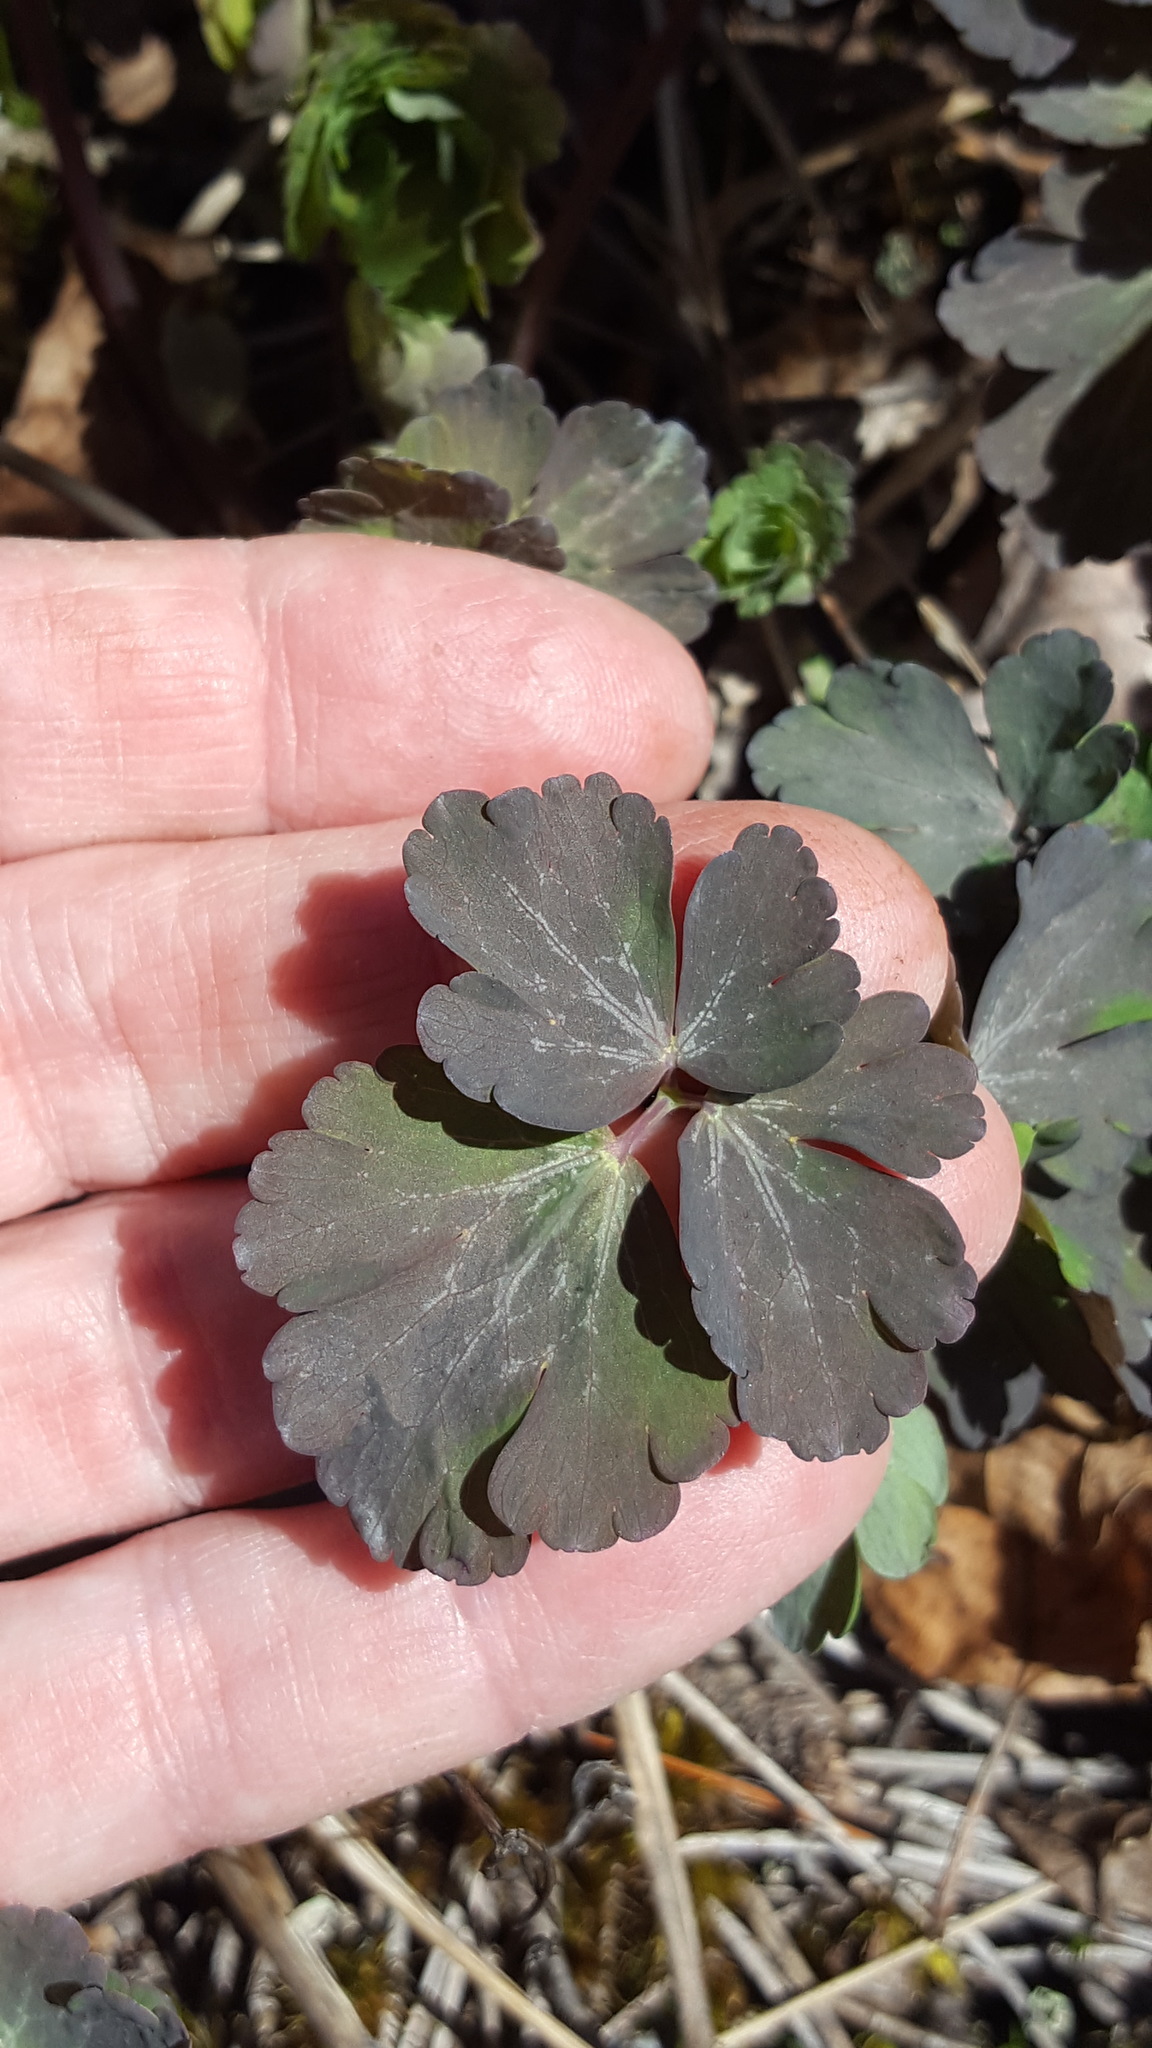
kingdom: Plantae
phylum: Tracheophyta
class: Magnoliopsida
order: Ranunculales
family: Ranunculaceae
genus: Aquilegia
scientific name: Aquilegia canadensis
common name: American columbine
